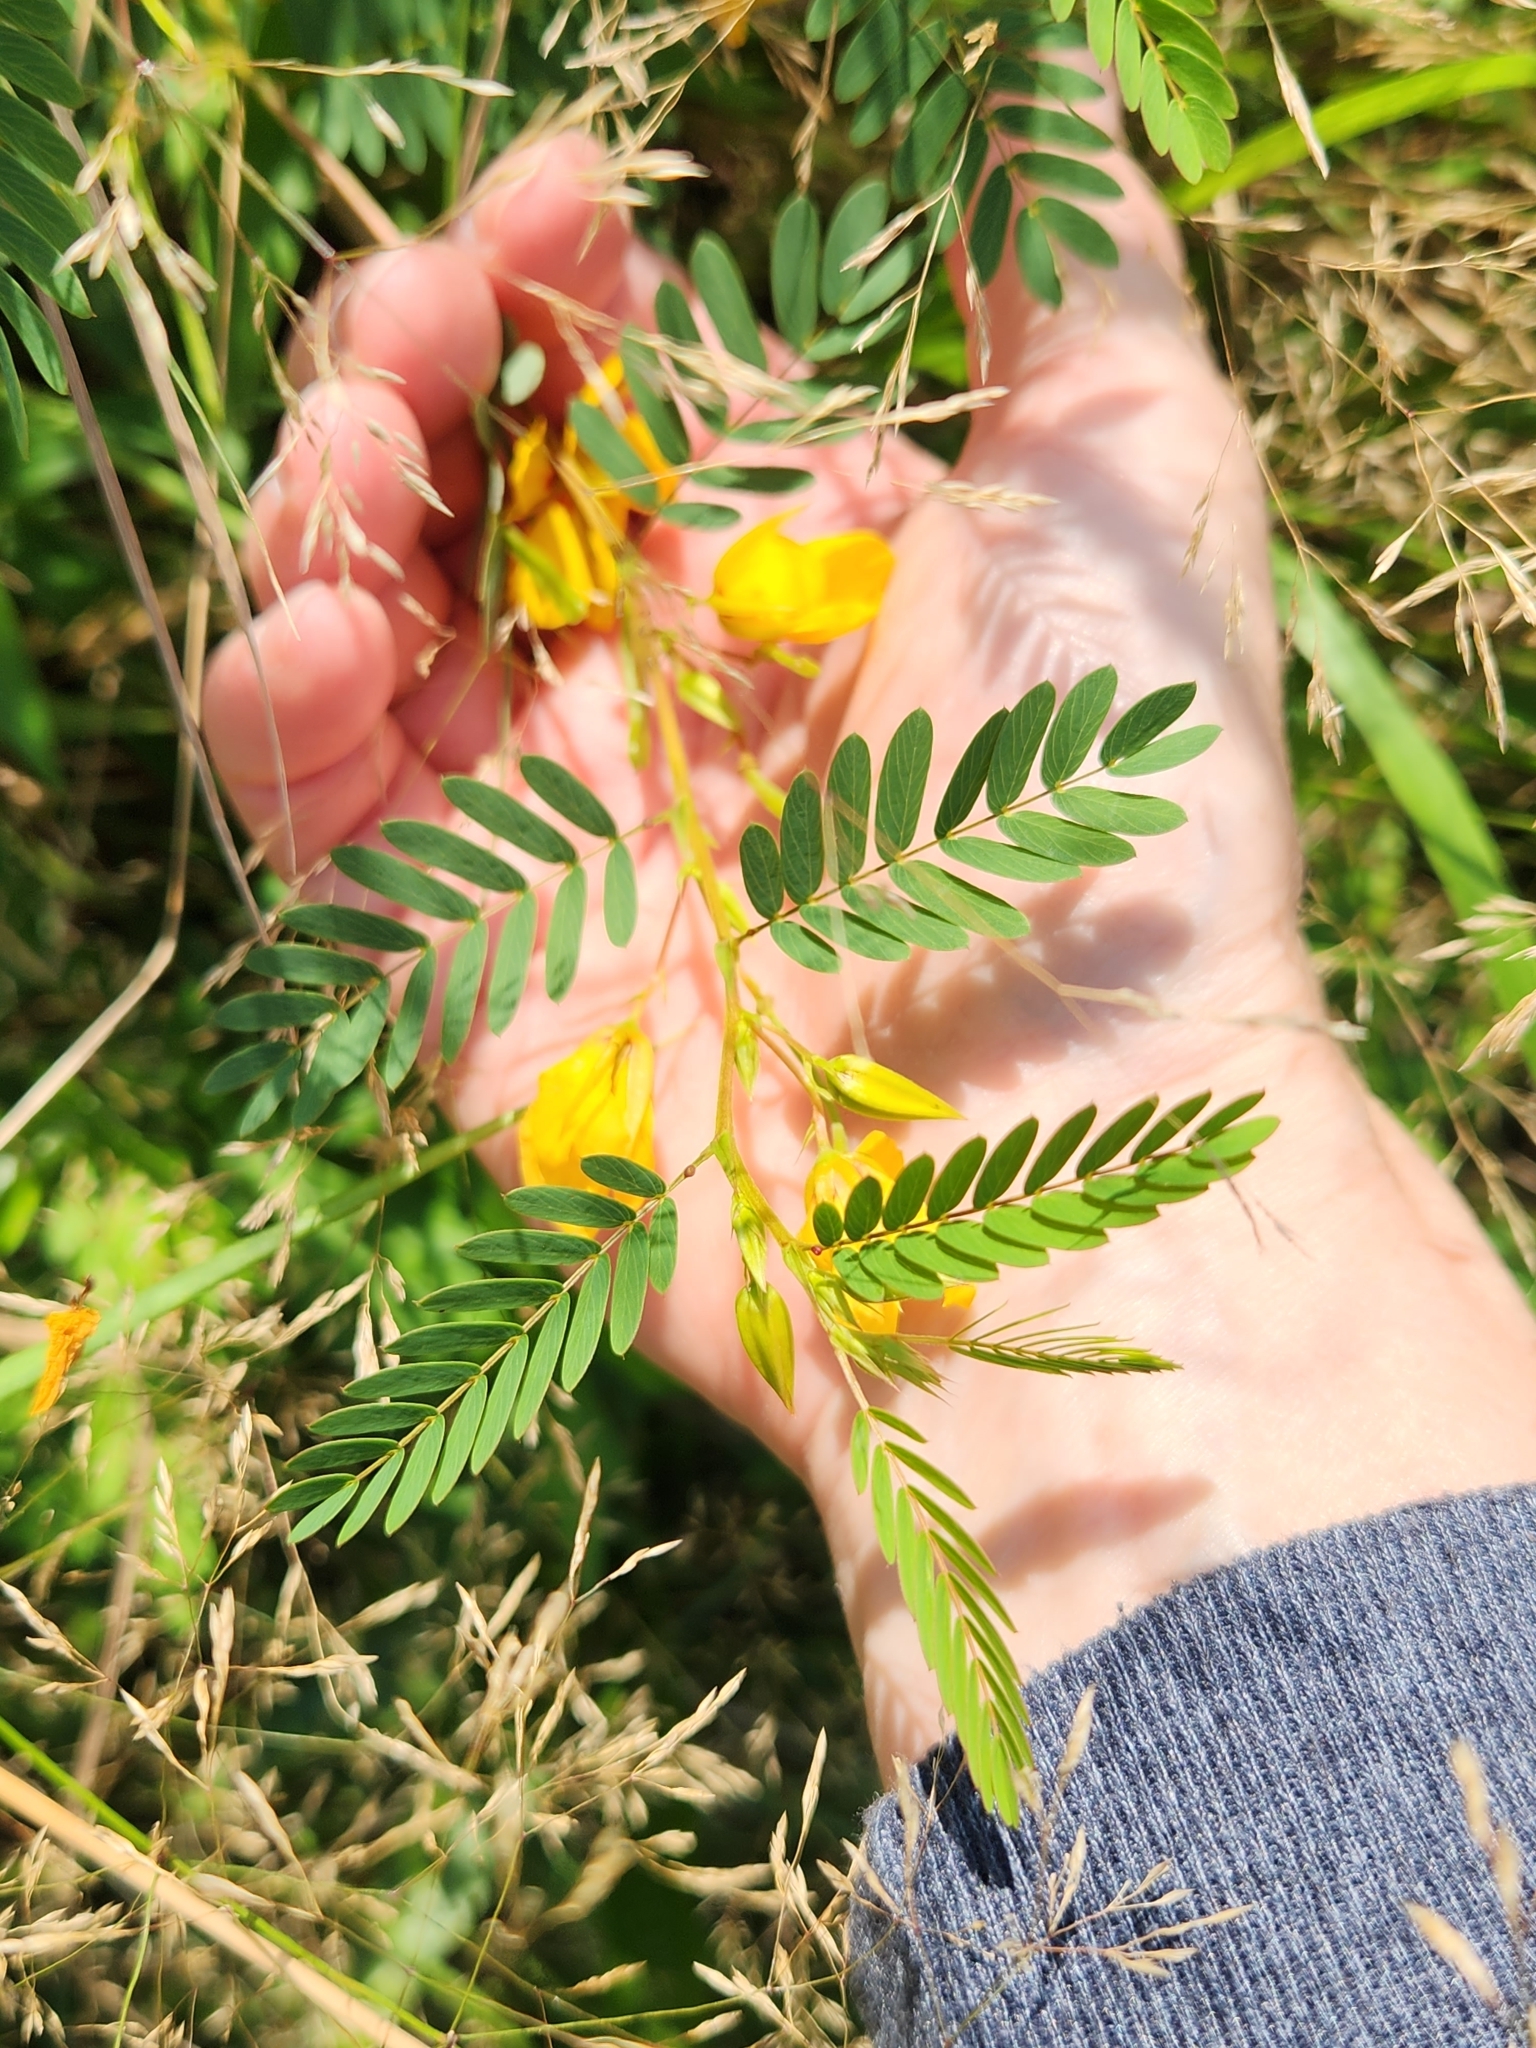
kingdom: Plantae
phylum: Tracheophyta
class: Magnoliopsida
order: Fabales
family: Fabaceae
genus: Chamaecrista
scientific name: Chamaecrista fasciculata
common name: Golden cassia
